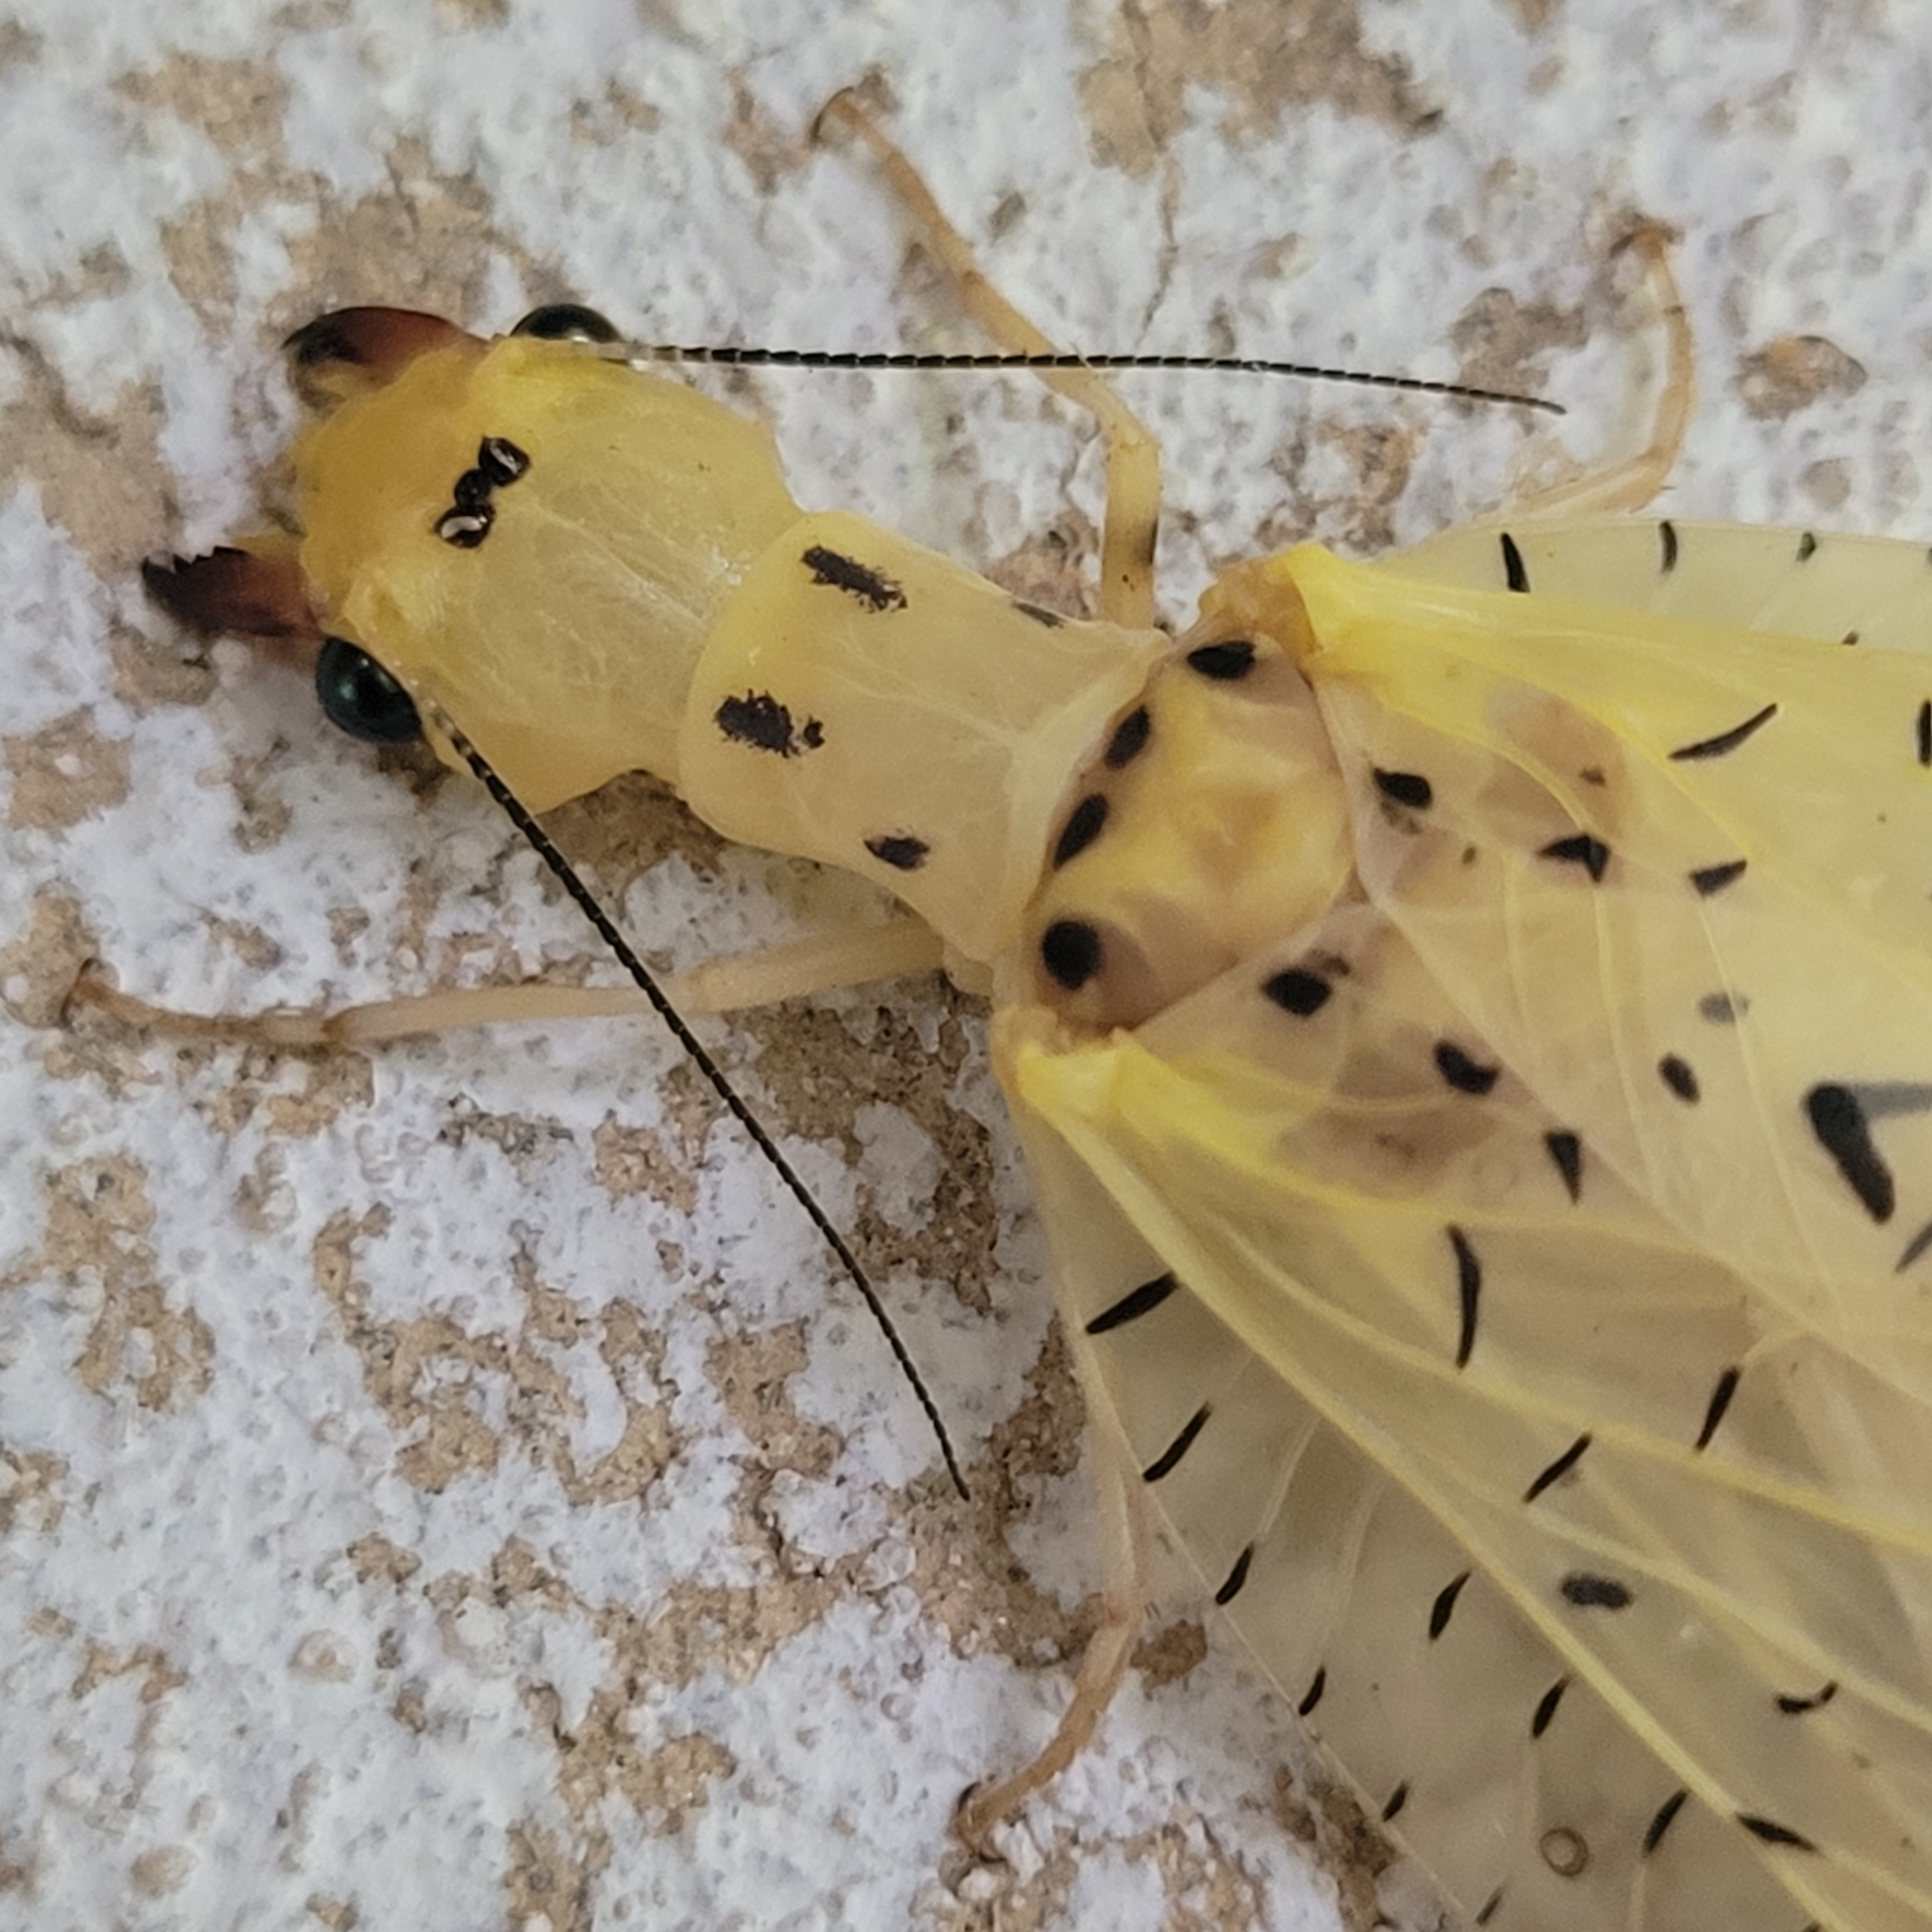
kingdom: Animalia
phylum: Arthropoda
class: Insecta
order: Megaloptera
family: Corydalidae
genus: Chloronia
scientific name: Chloronia corripiens
